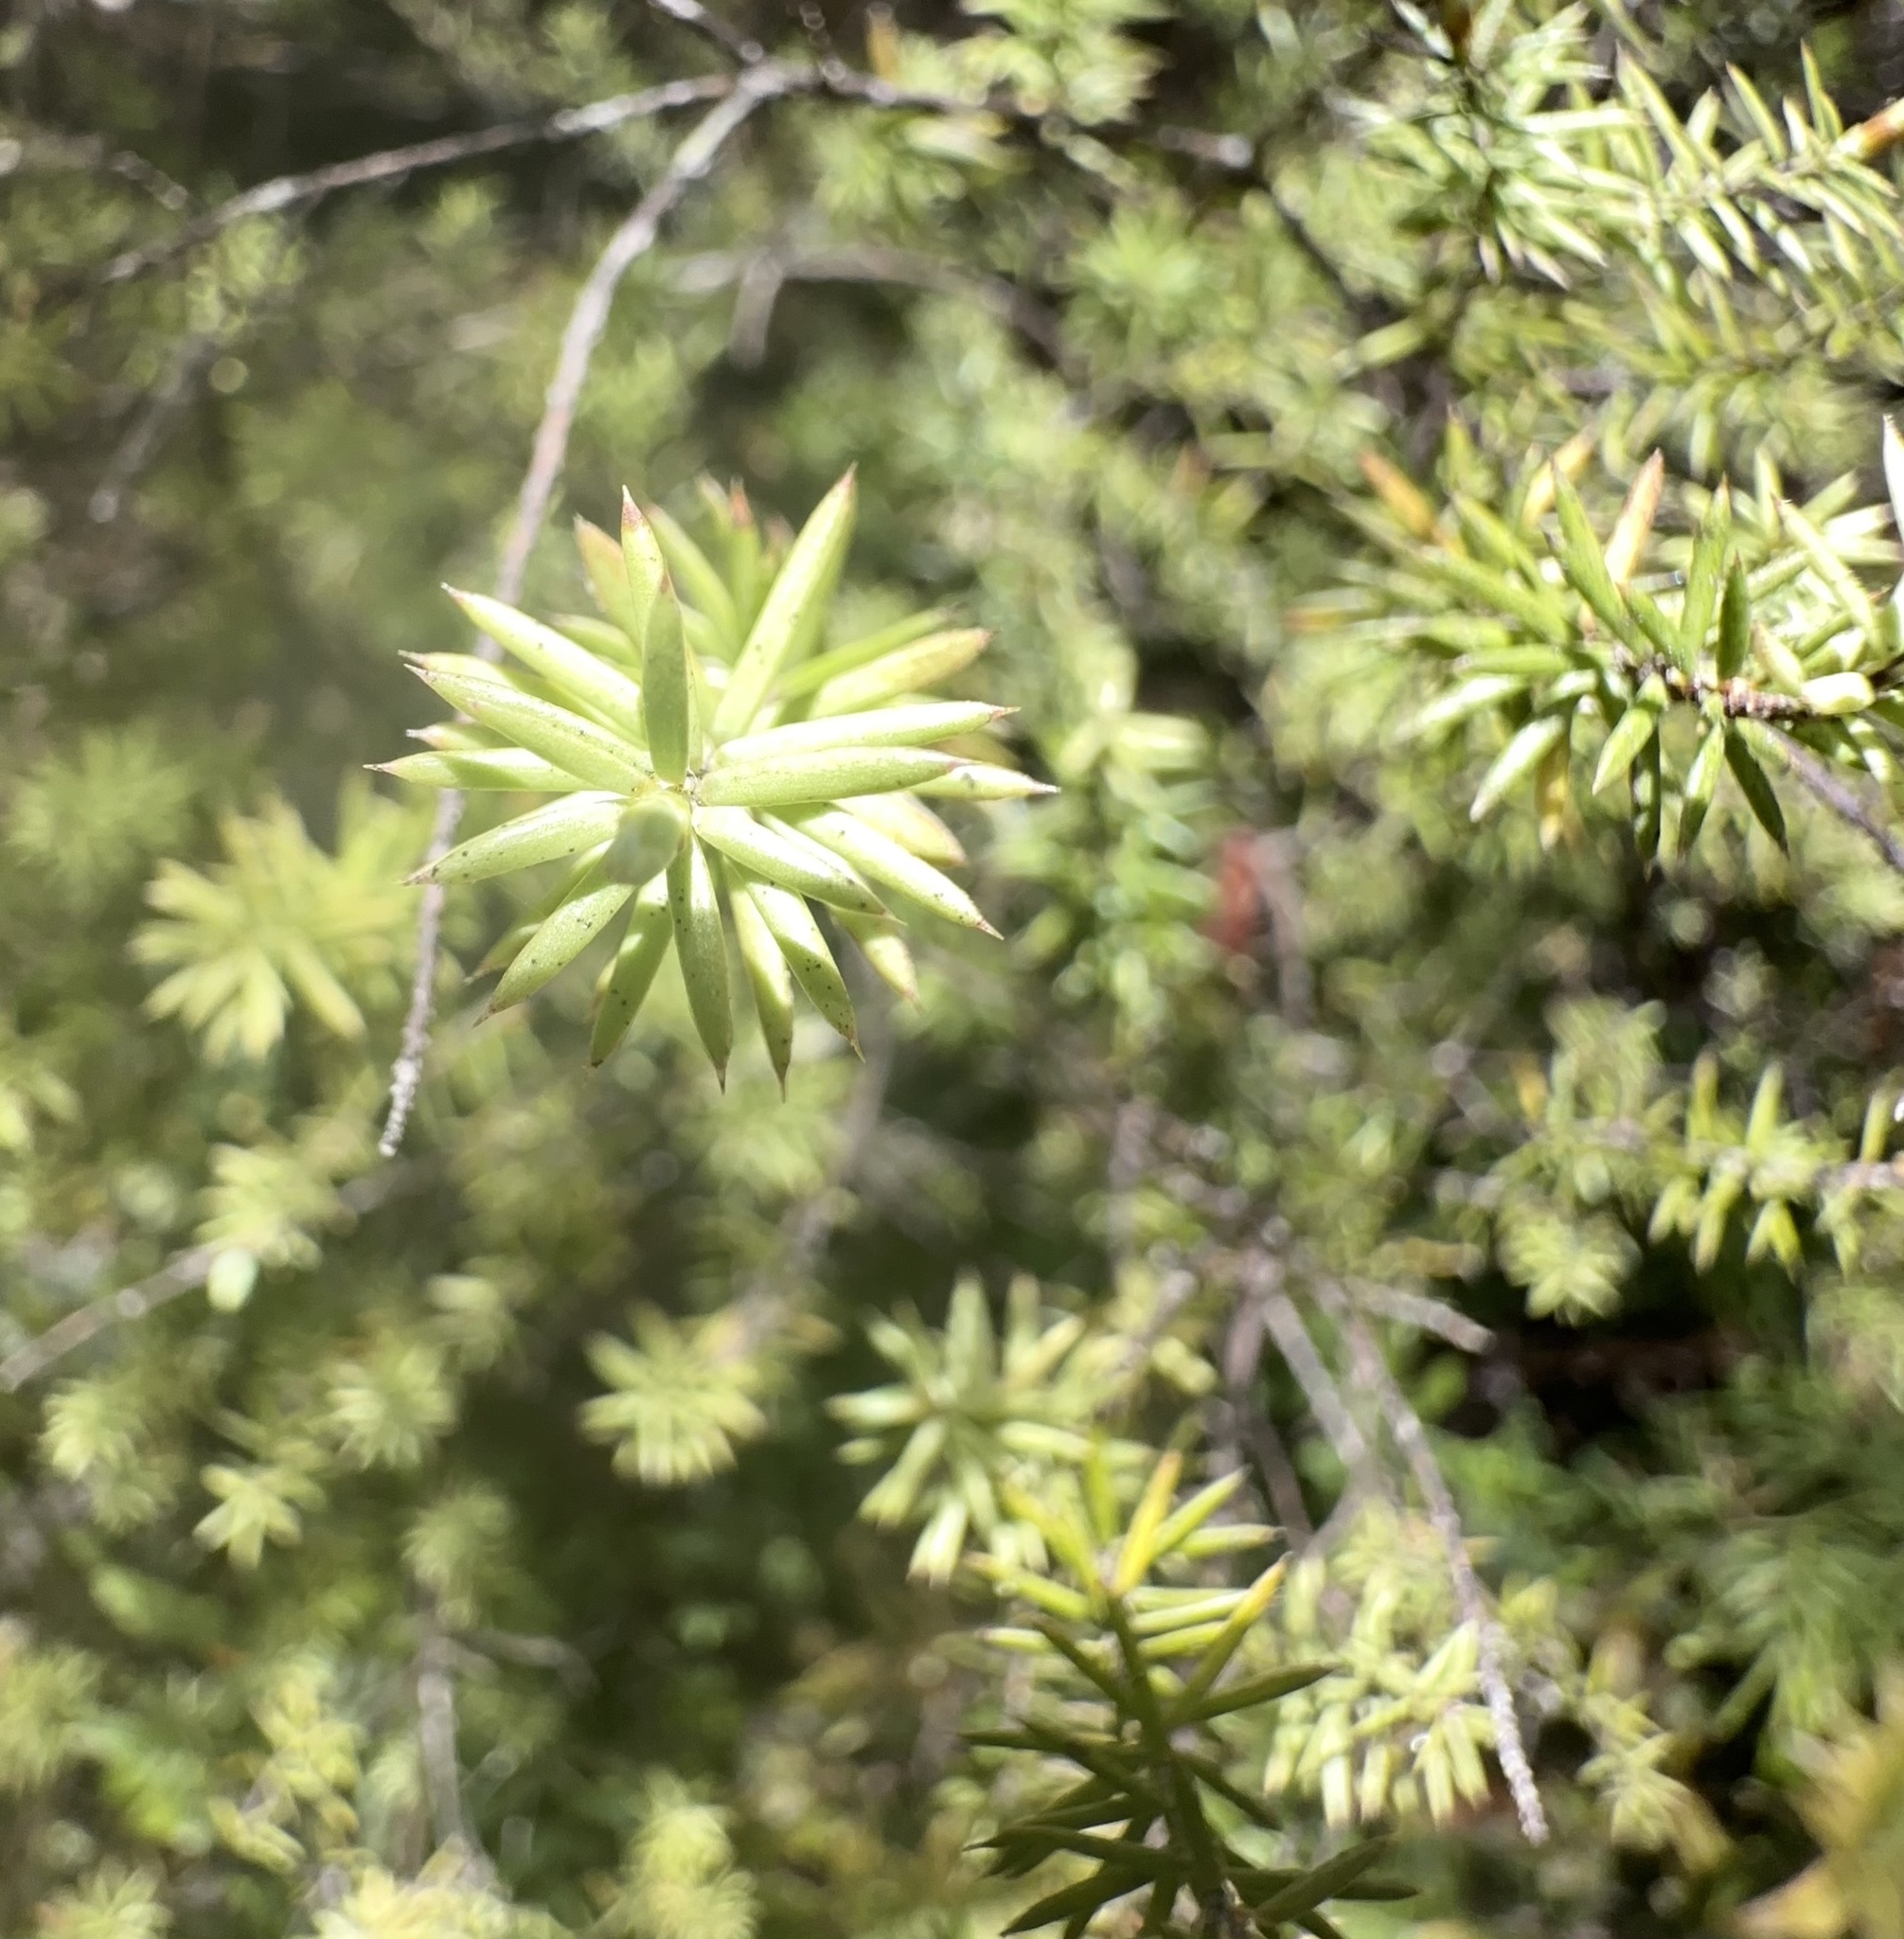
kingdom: Plantae
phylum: Tracheophyta
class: Magnoliopsida
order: Ericales
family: Ericaceae
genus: Leptecophylla
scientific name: Leptecophylla juniperina
